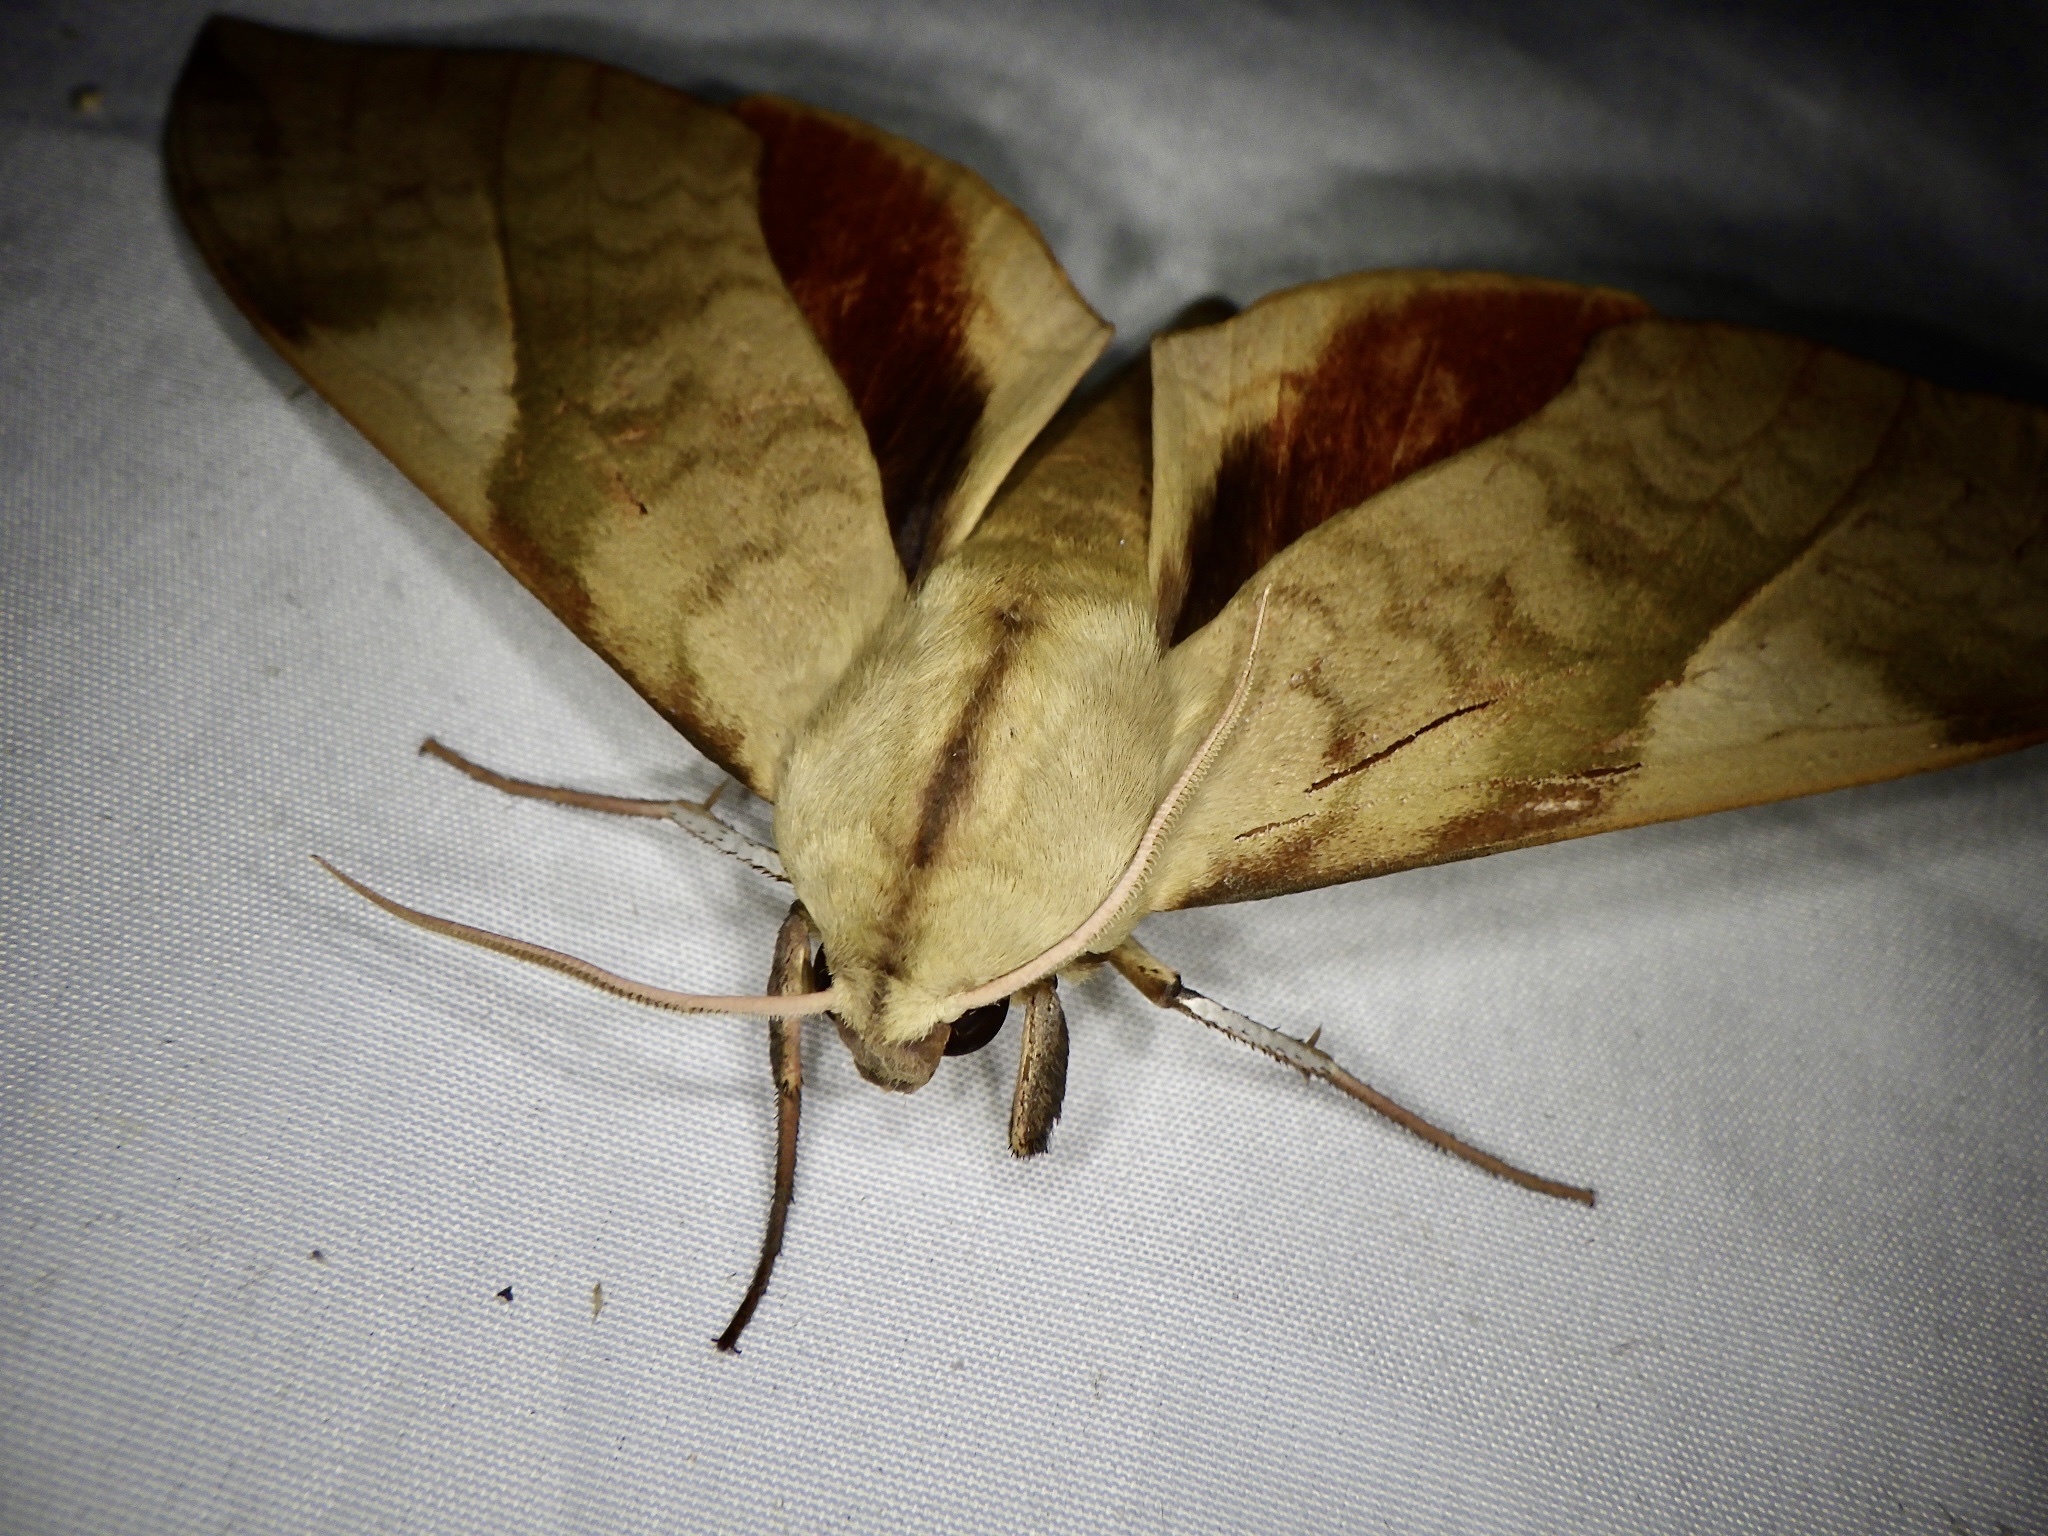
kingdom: Animalia
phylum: Arthropoda
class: Insecta
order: Lepidoptera
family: Sphingidae
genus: Clanis
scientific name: Clanis bilineata
